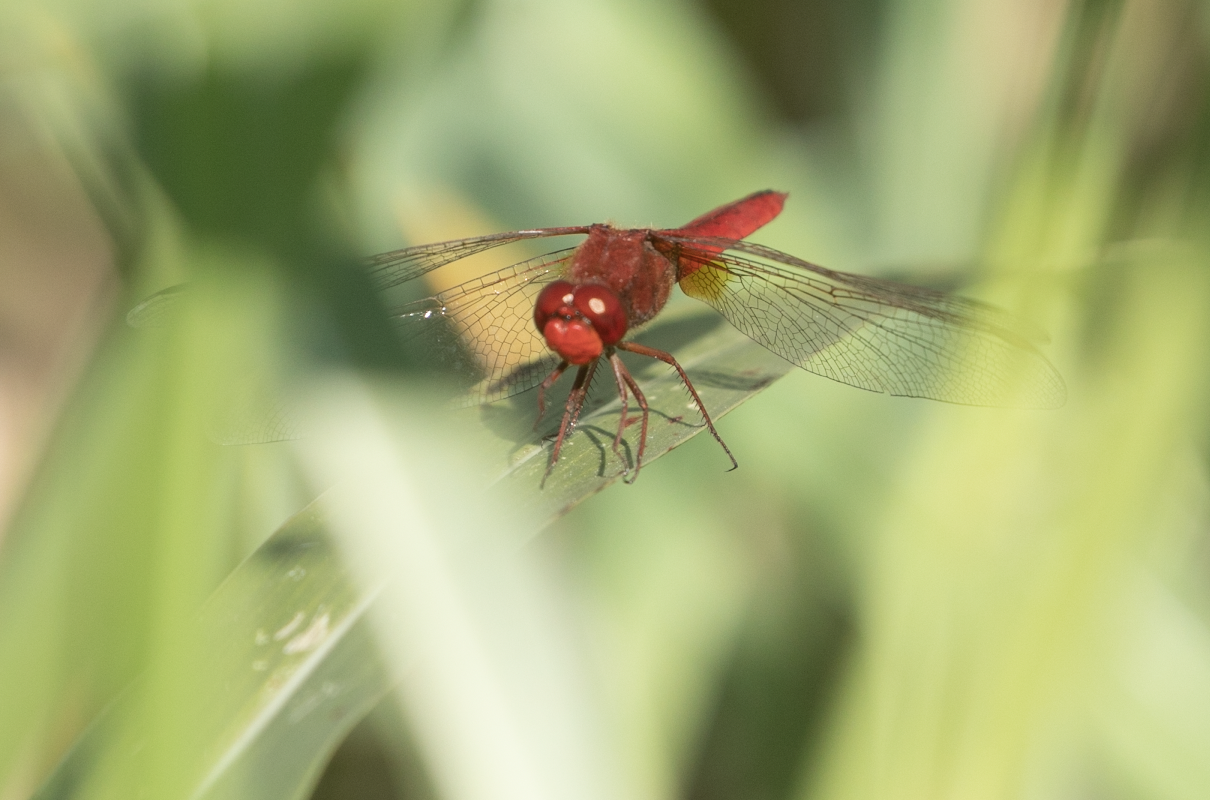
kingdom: Animalia
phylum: Arthropoda
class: Insecta
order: Odonata
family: Libellulidae
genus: Crocothemis
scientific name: Crocothemis erythraea
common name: Scarlet dragonfly
